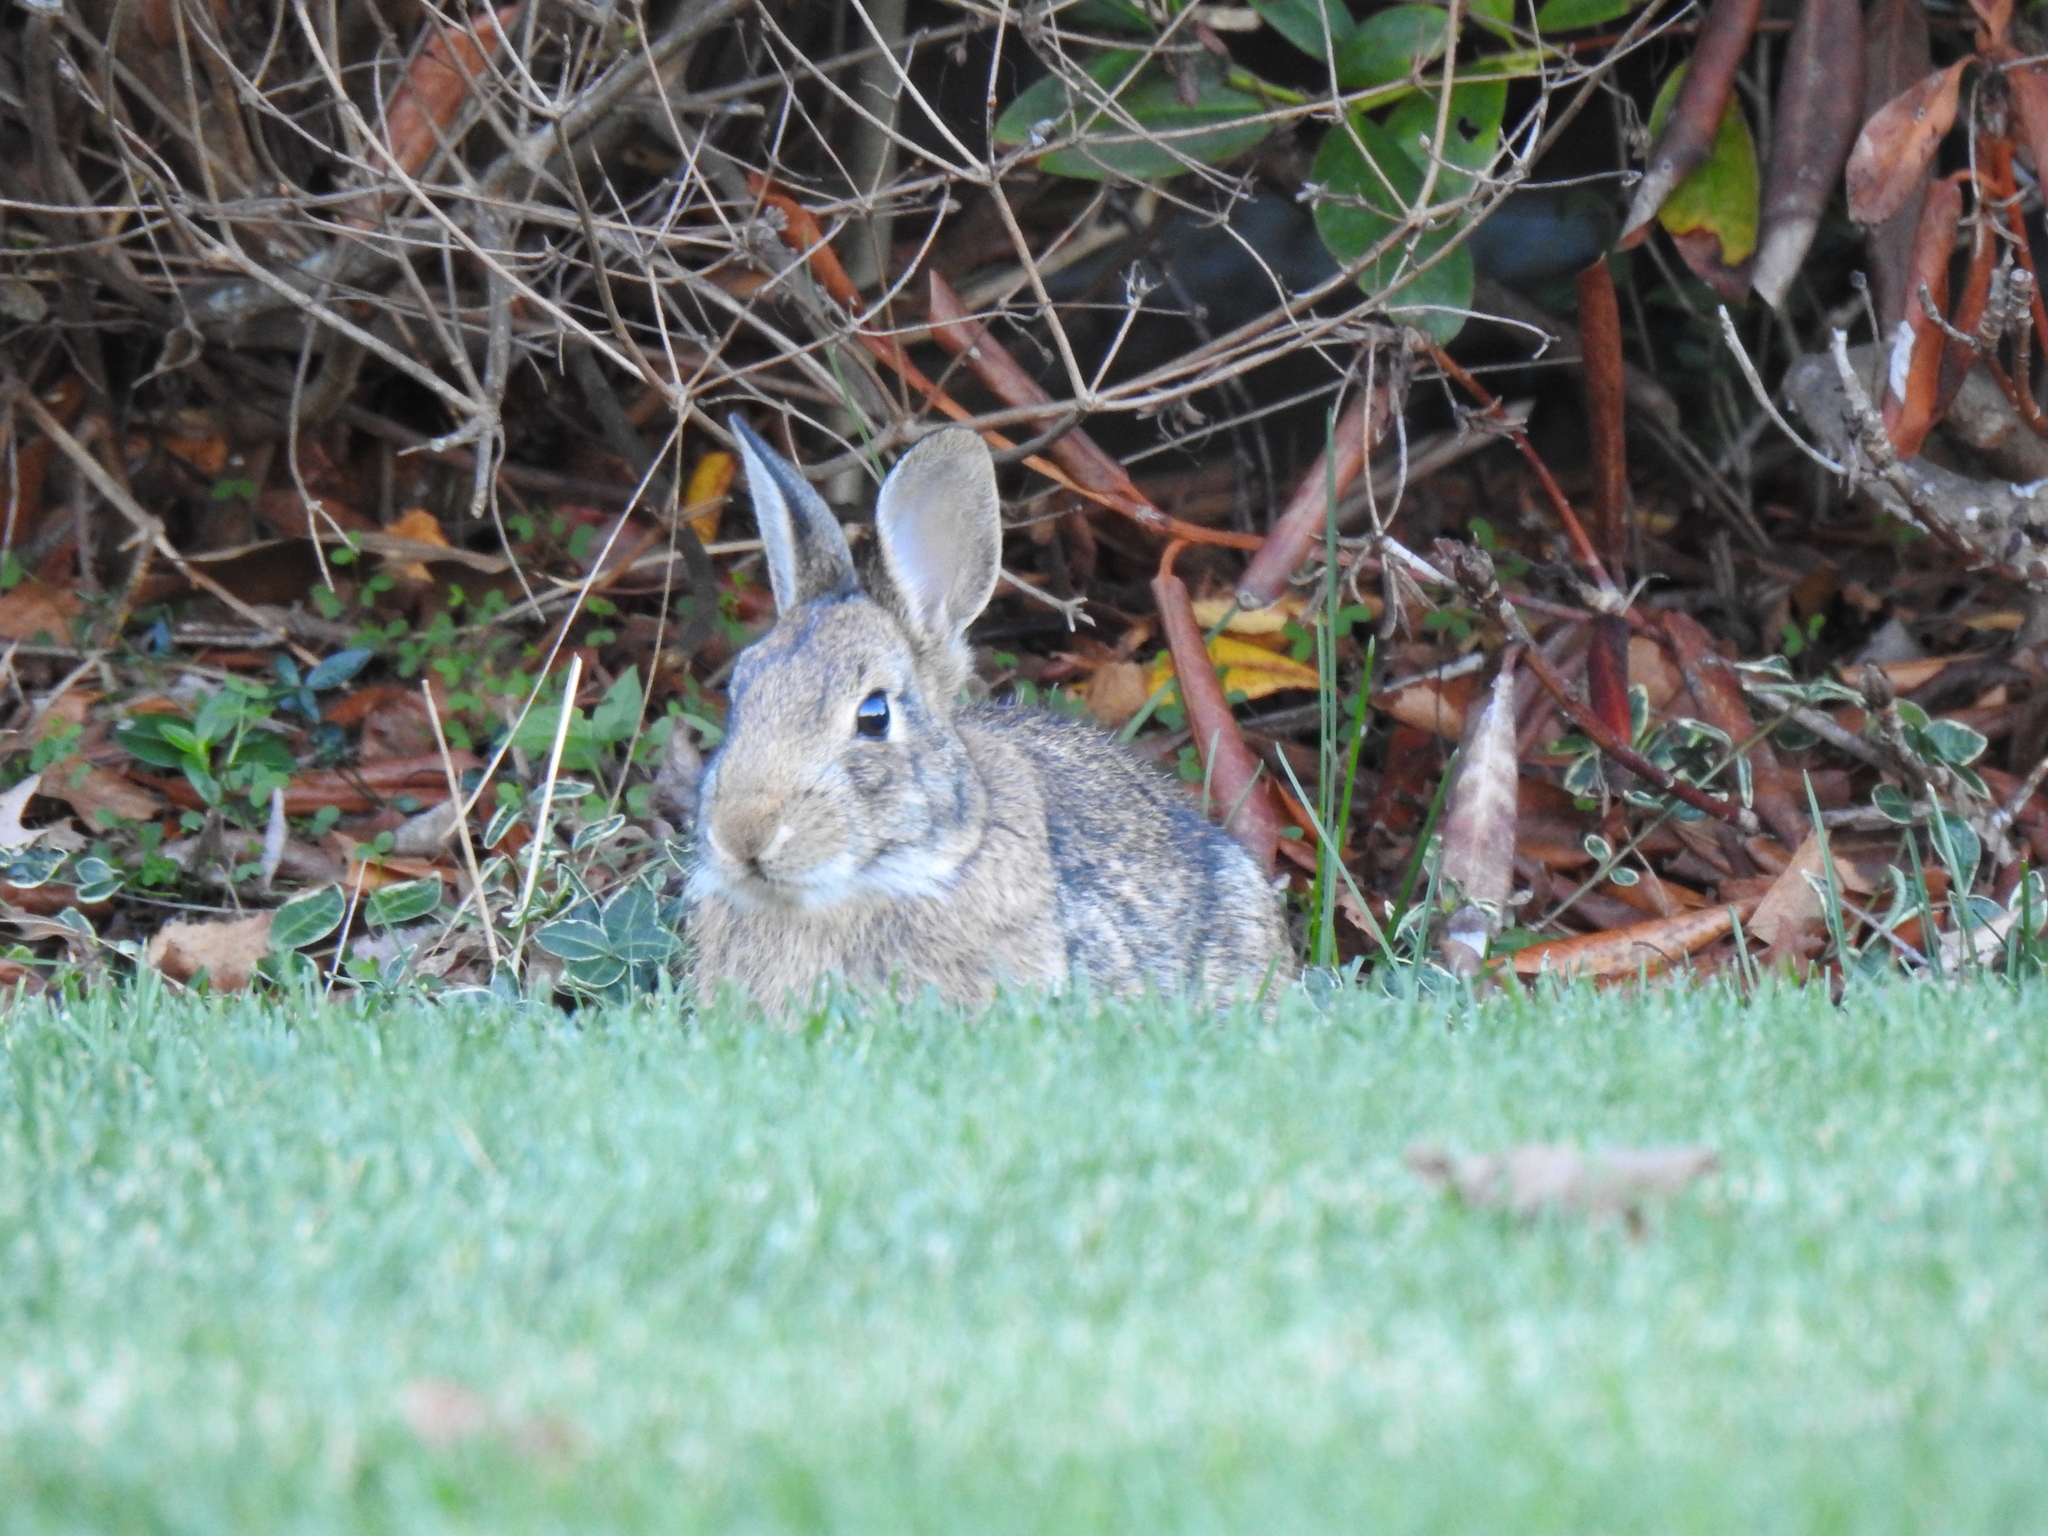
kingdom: Animalia
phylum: Chordata
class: Mammalia
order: Lagomorpha
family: Leporidae
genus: Sylvilagus
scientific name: Sylvilagus floridanus
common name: Eastern cottontail
